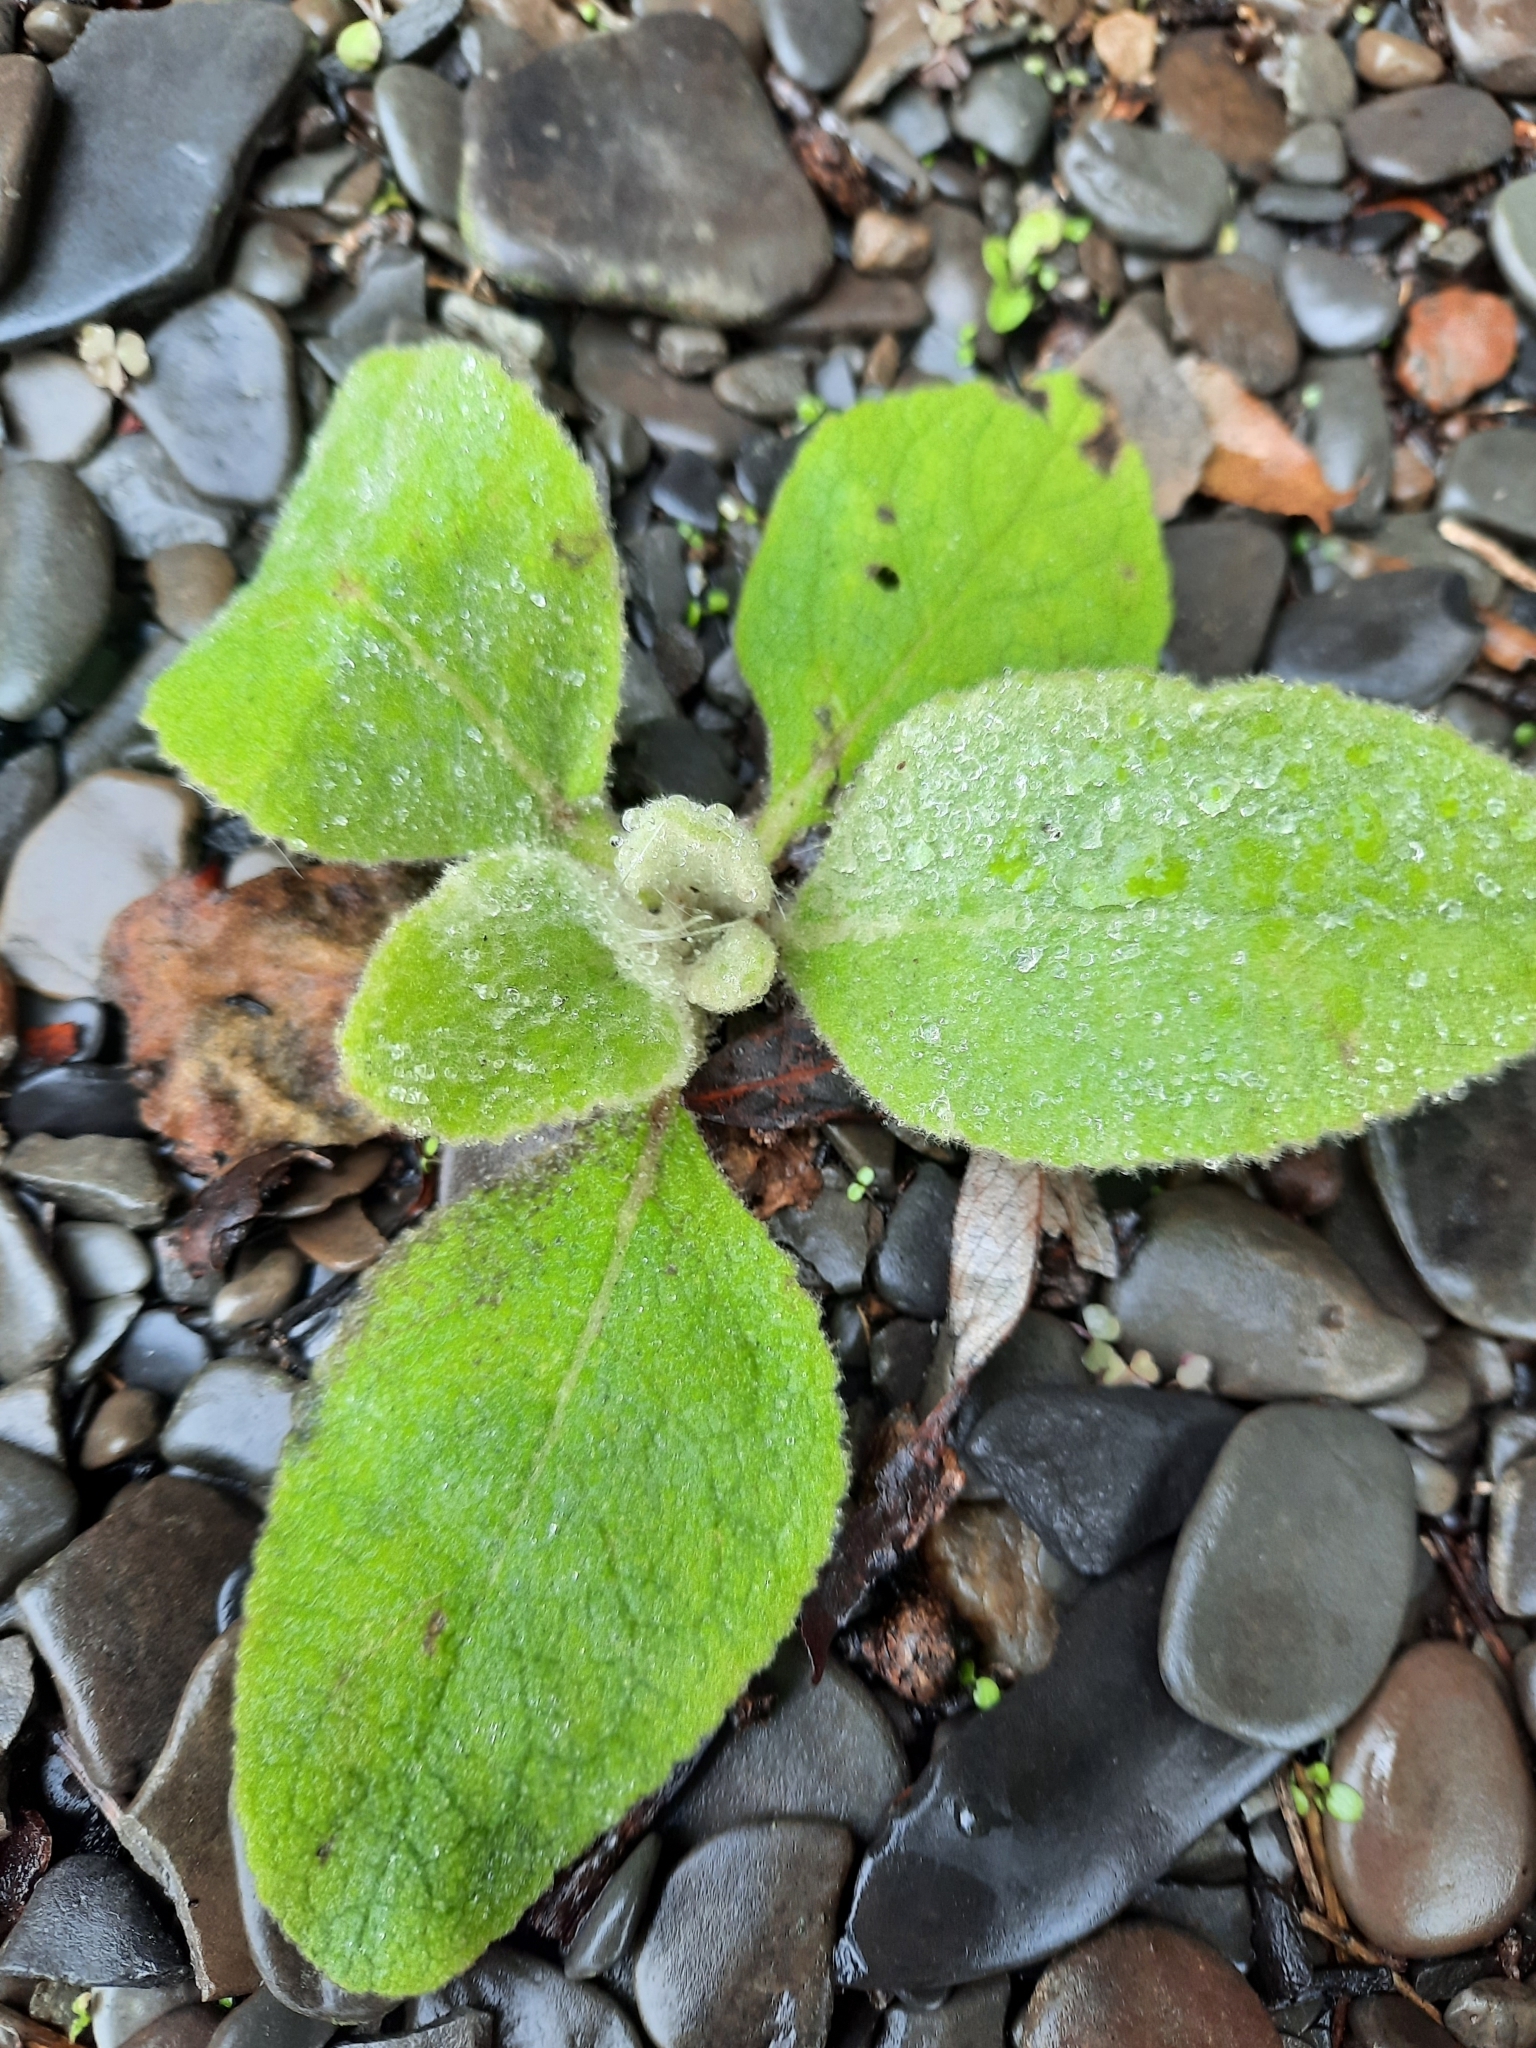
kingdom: Plantae
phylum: Tracheophyta
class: Magnoliopsida
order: Lamiales
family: Scrophulariaceae
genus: Verbascum
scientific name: Verbascum thapsus
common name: Common mullein
